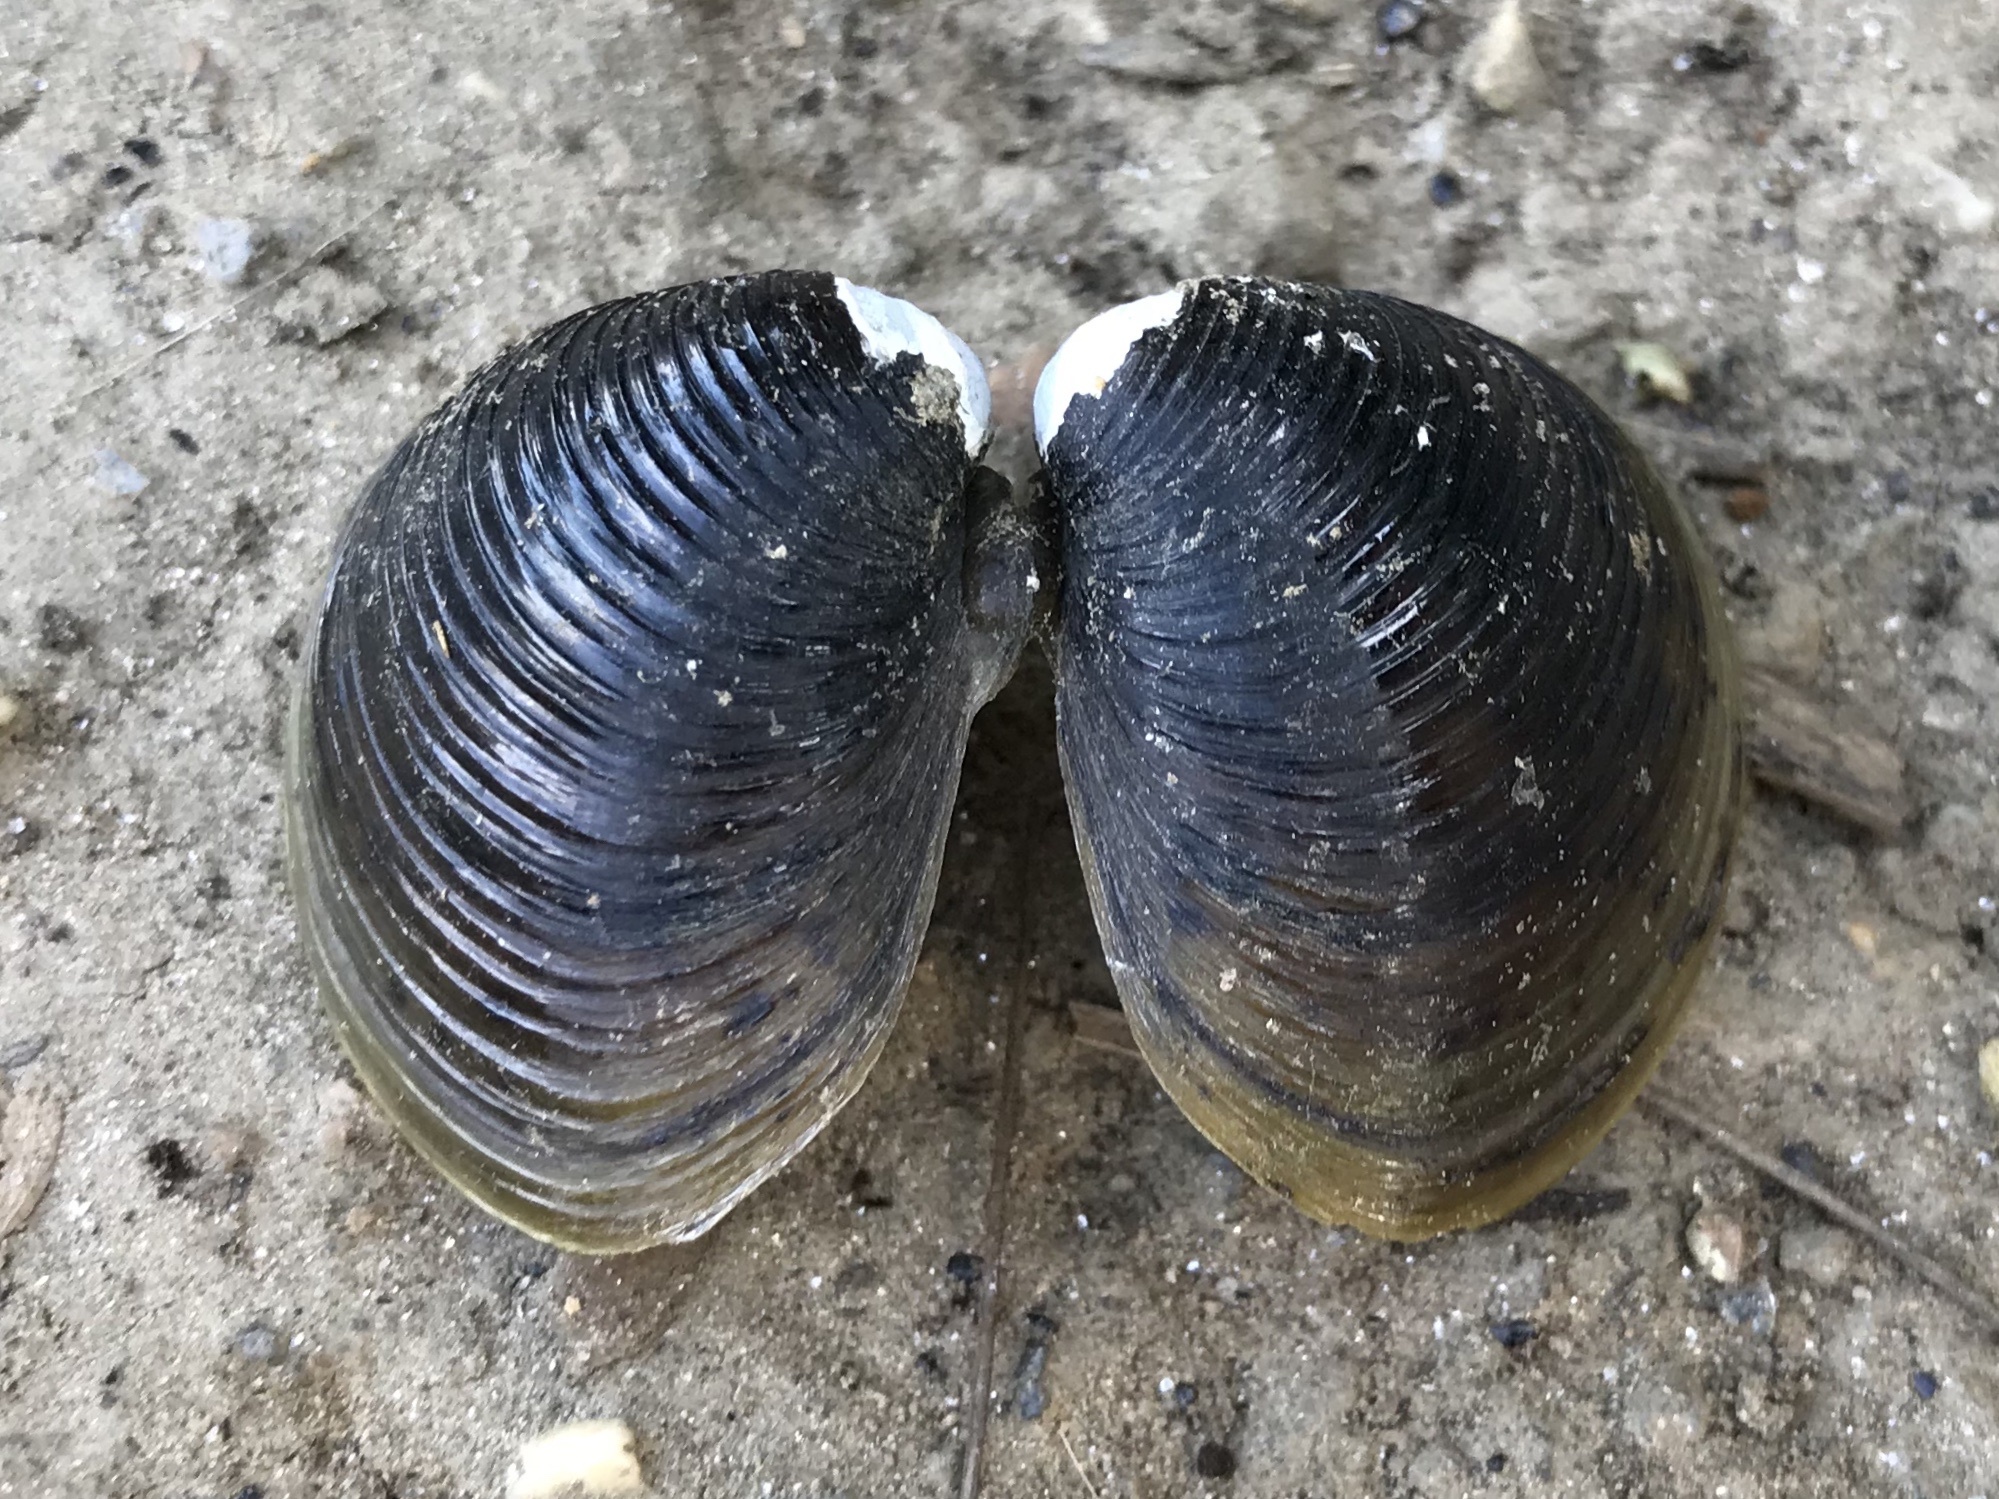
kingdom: Animalia
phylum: Mollusca
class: Bivalvia
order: Venerida
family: Cyrenidae
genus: Corbicula
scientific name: Corbicula fluminea
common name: Asian clam
